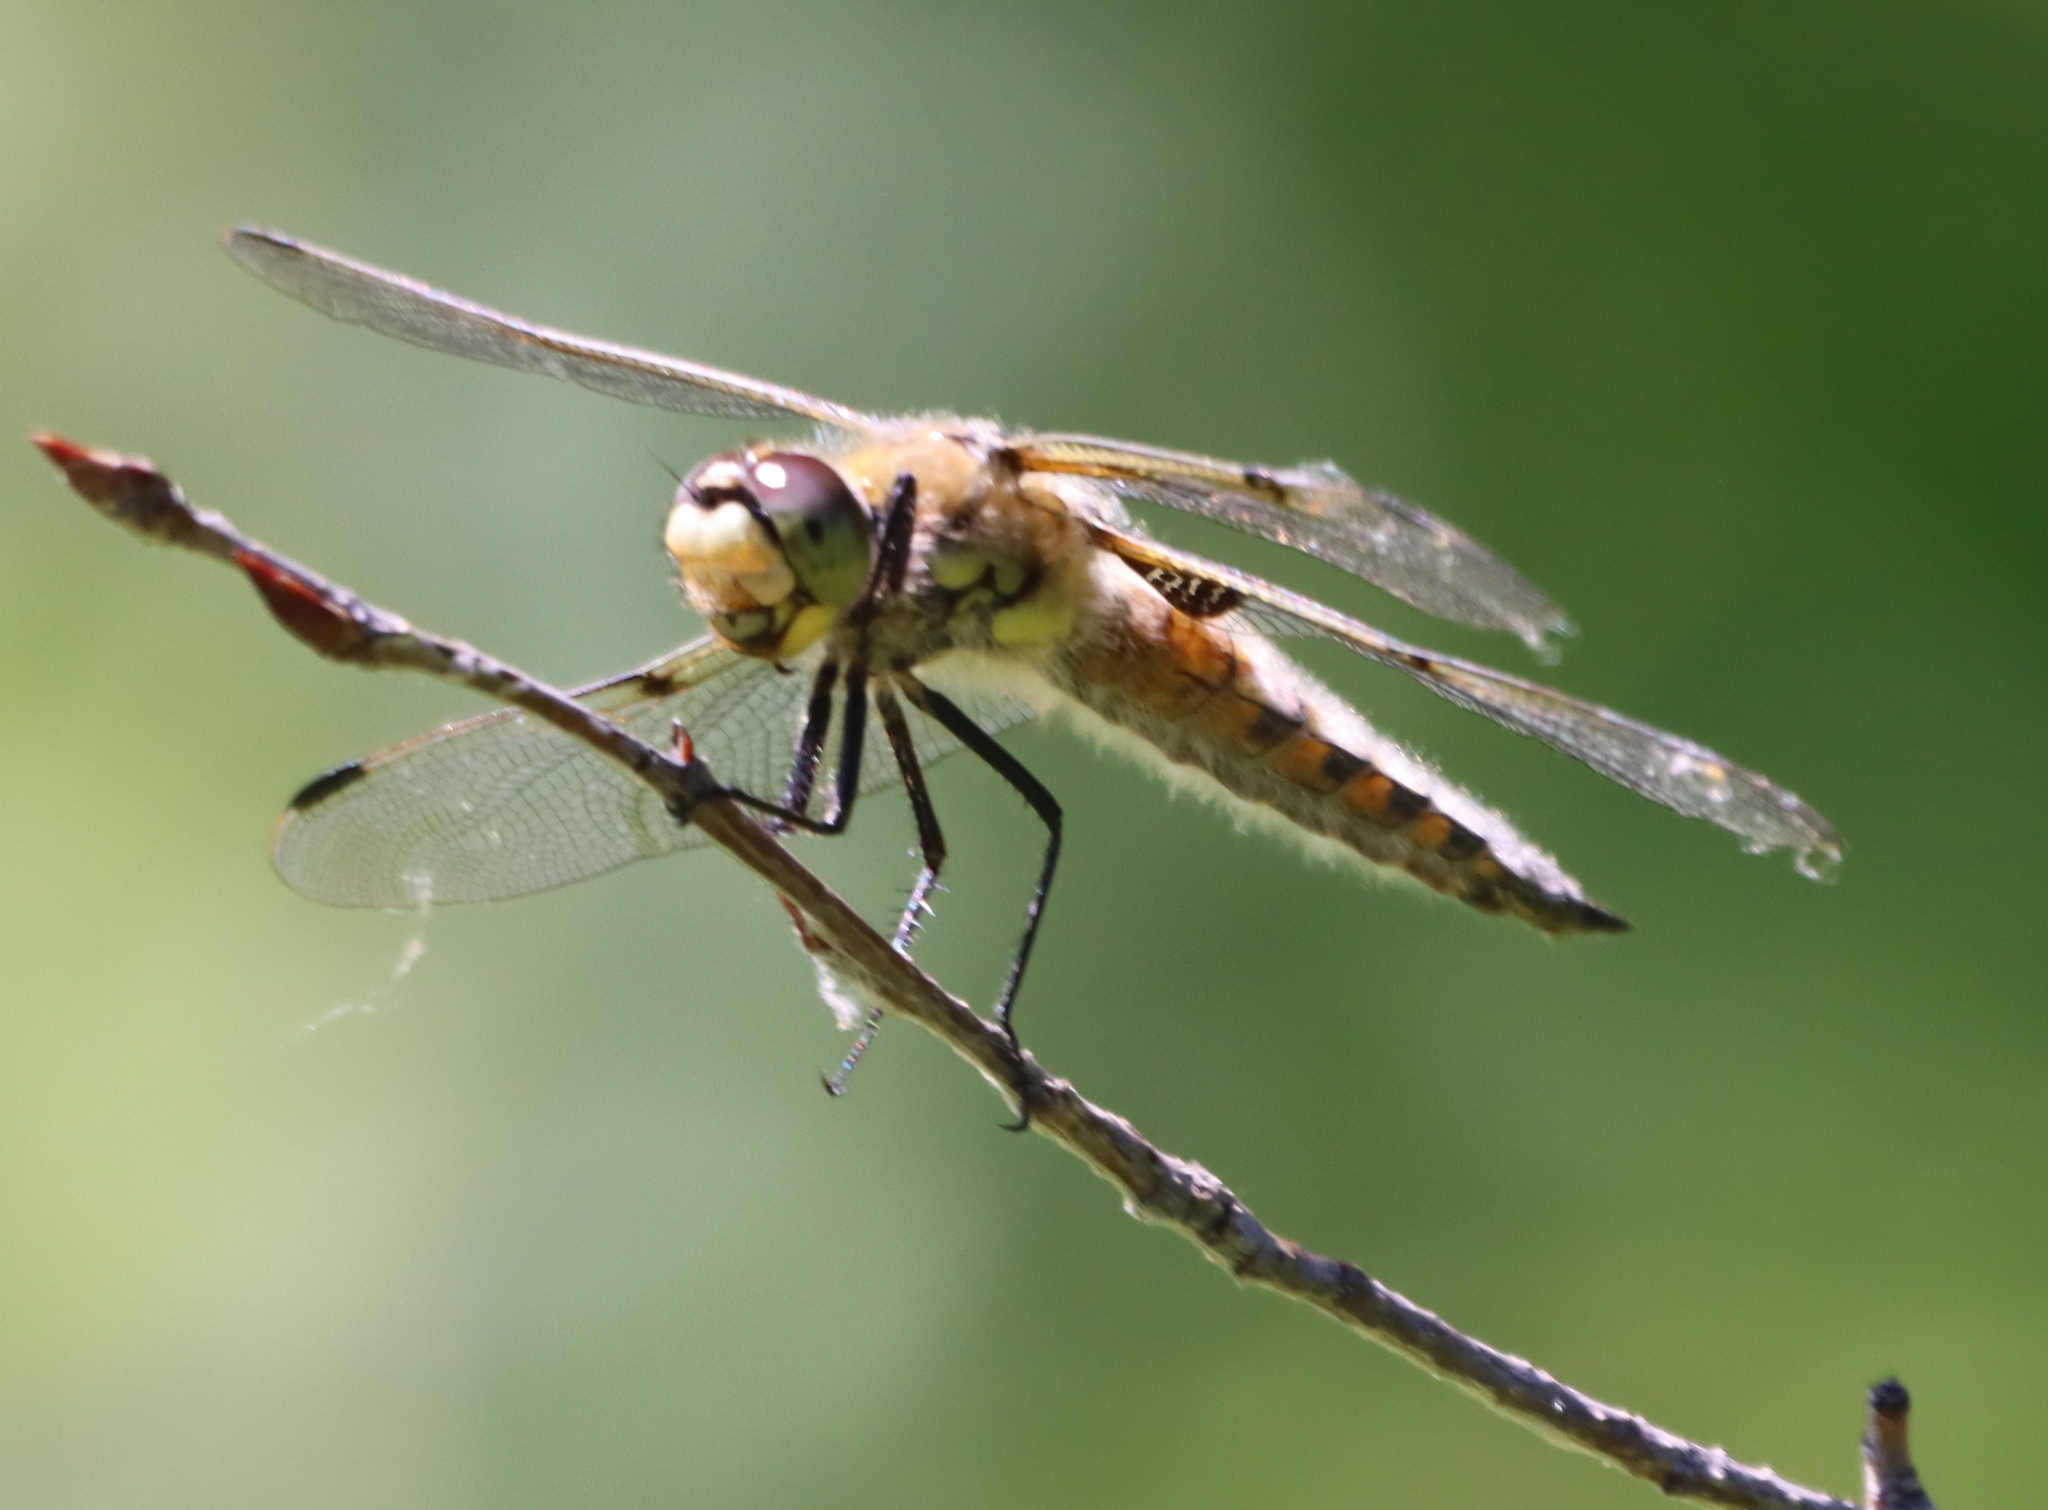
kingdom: Animalia
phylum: Arthropoda
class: Insecta
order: Odonata
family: Libellulidae
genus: Libellula
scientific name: Libellula quadrimaculata
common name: Four-spotted chaser
